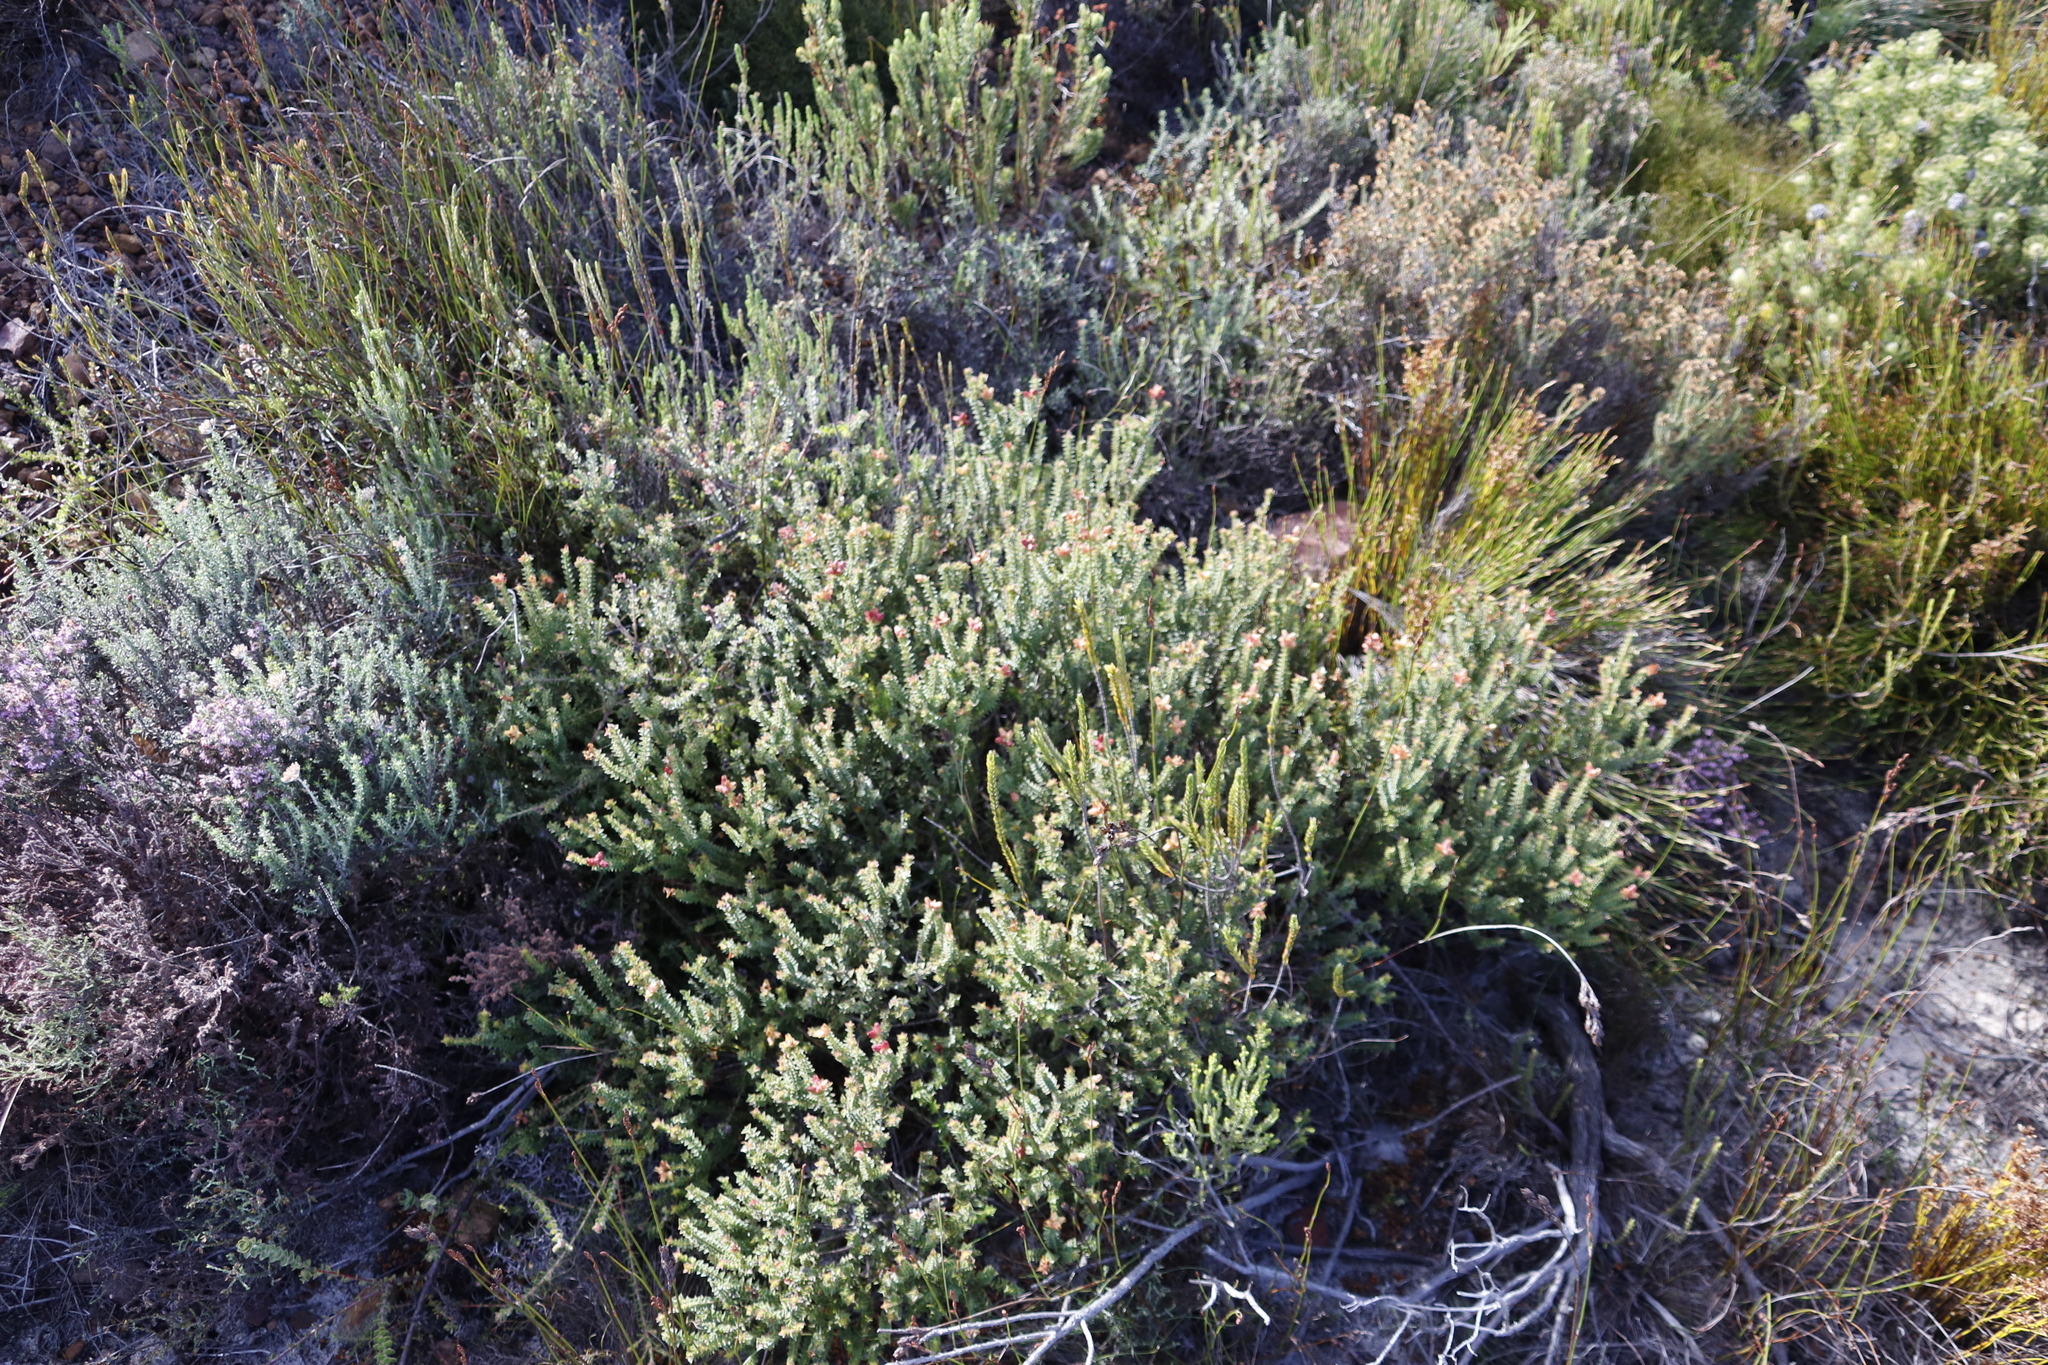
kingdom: Plantae
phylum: Tracheophyta
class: Magnoliopsida
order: Myrtales
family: Penaeaceae
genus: Penaea
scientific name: Penaea mucronata
